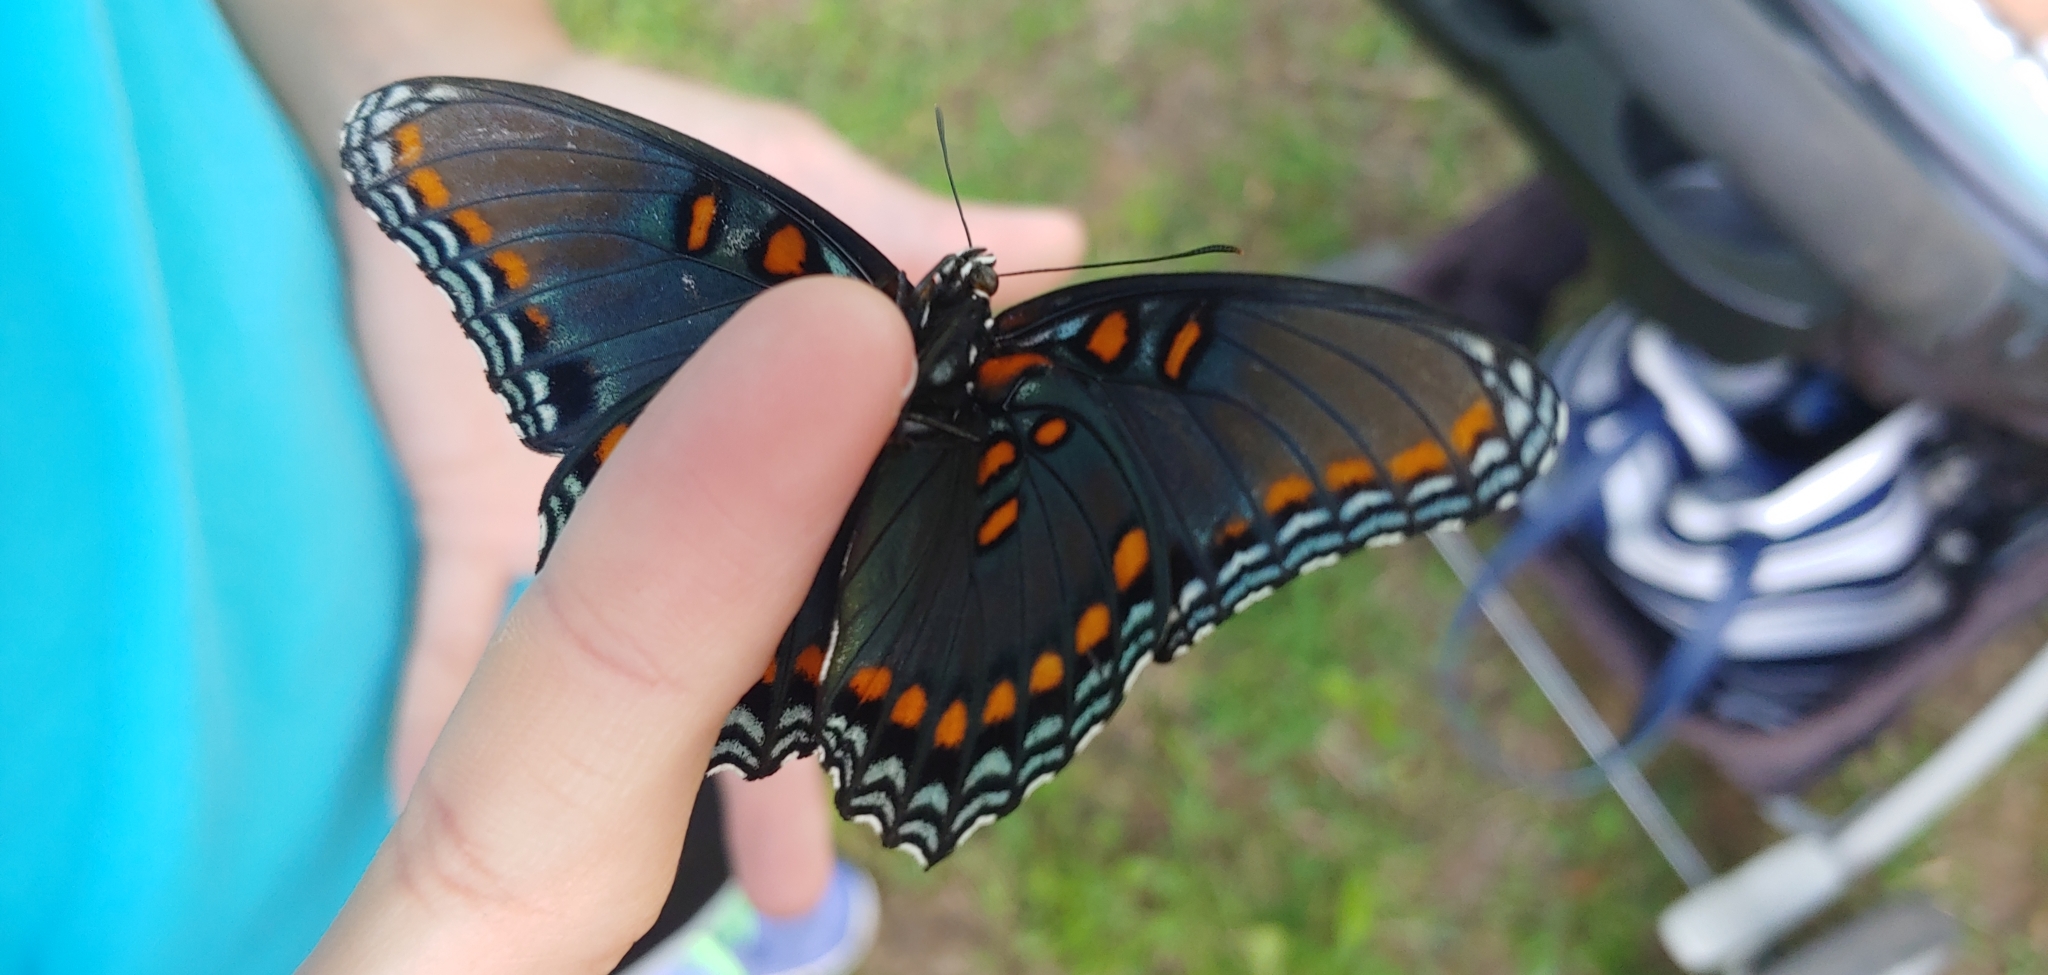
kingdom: Animalia
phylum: Arthropoda
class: Insecta
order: Lepidoptera
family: Nymphalidae
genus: Limenitis
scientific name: Limenitis arthemis
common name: Red-spotted admiral
